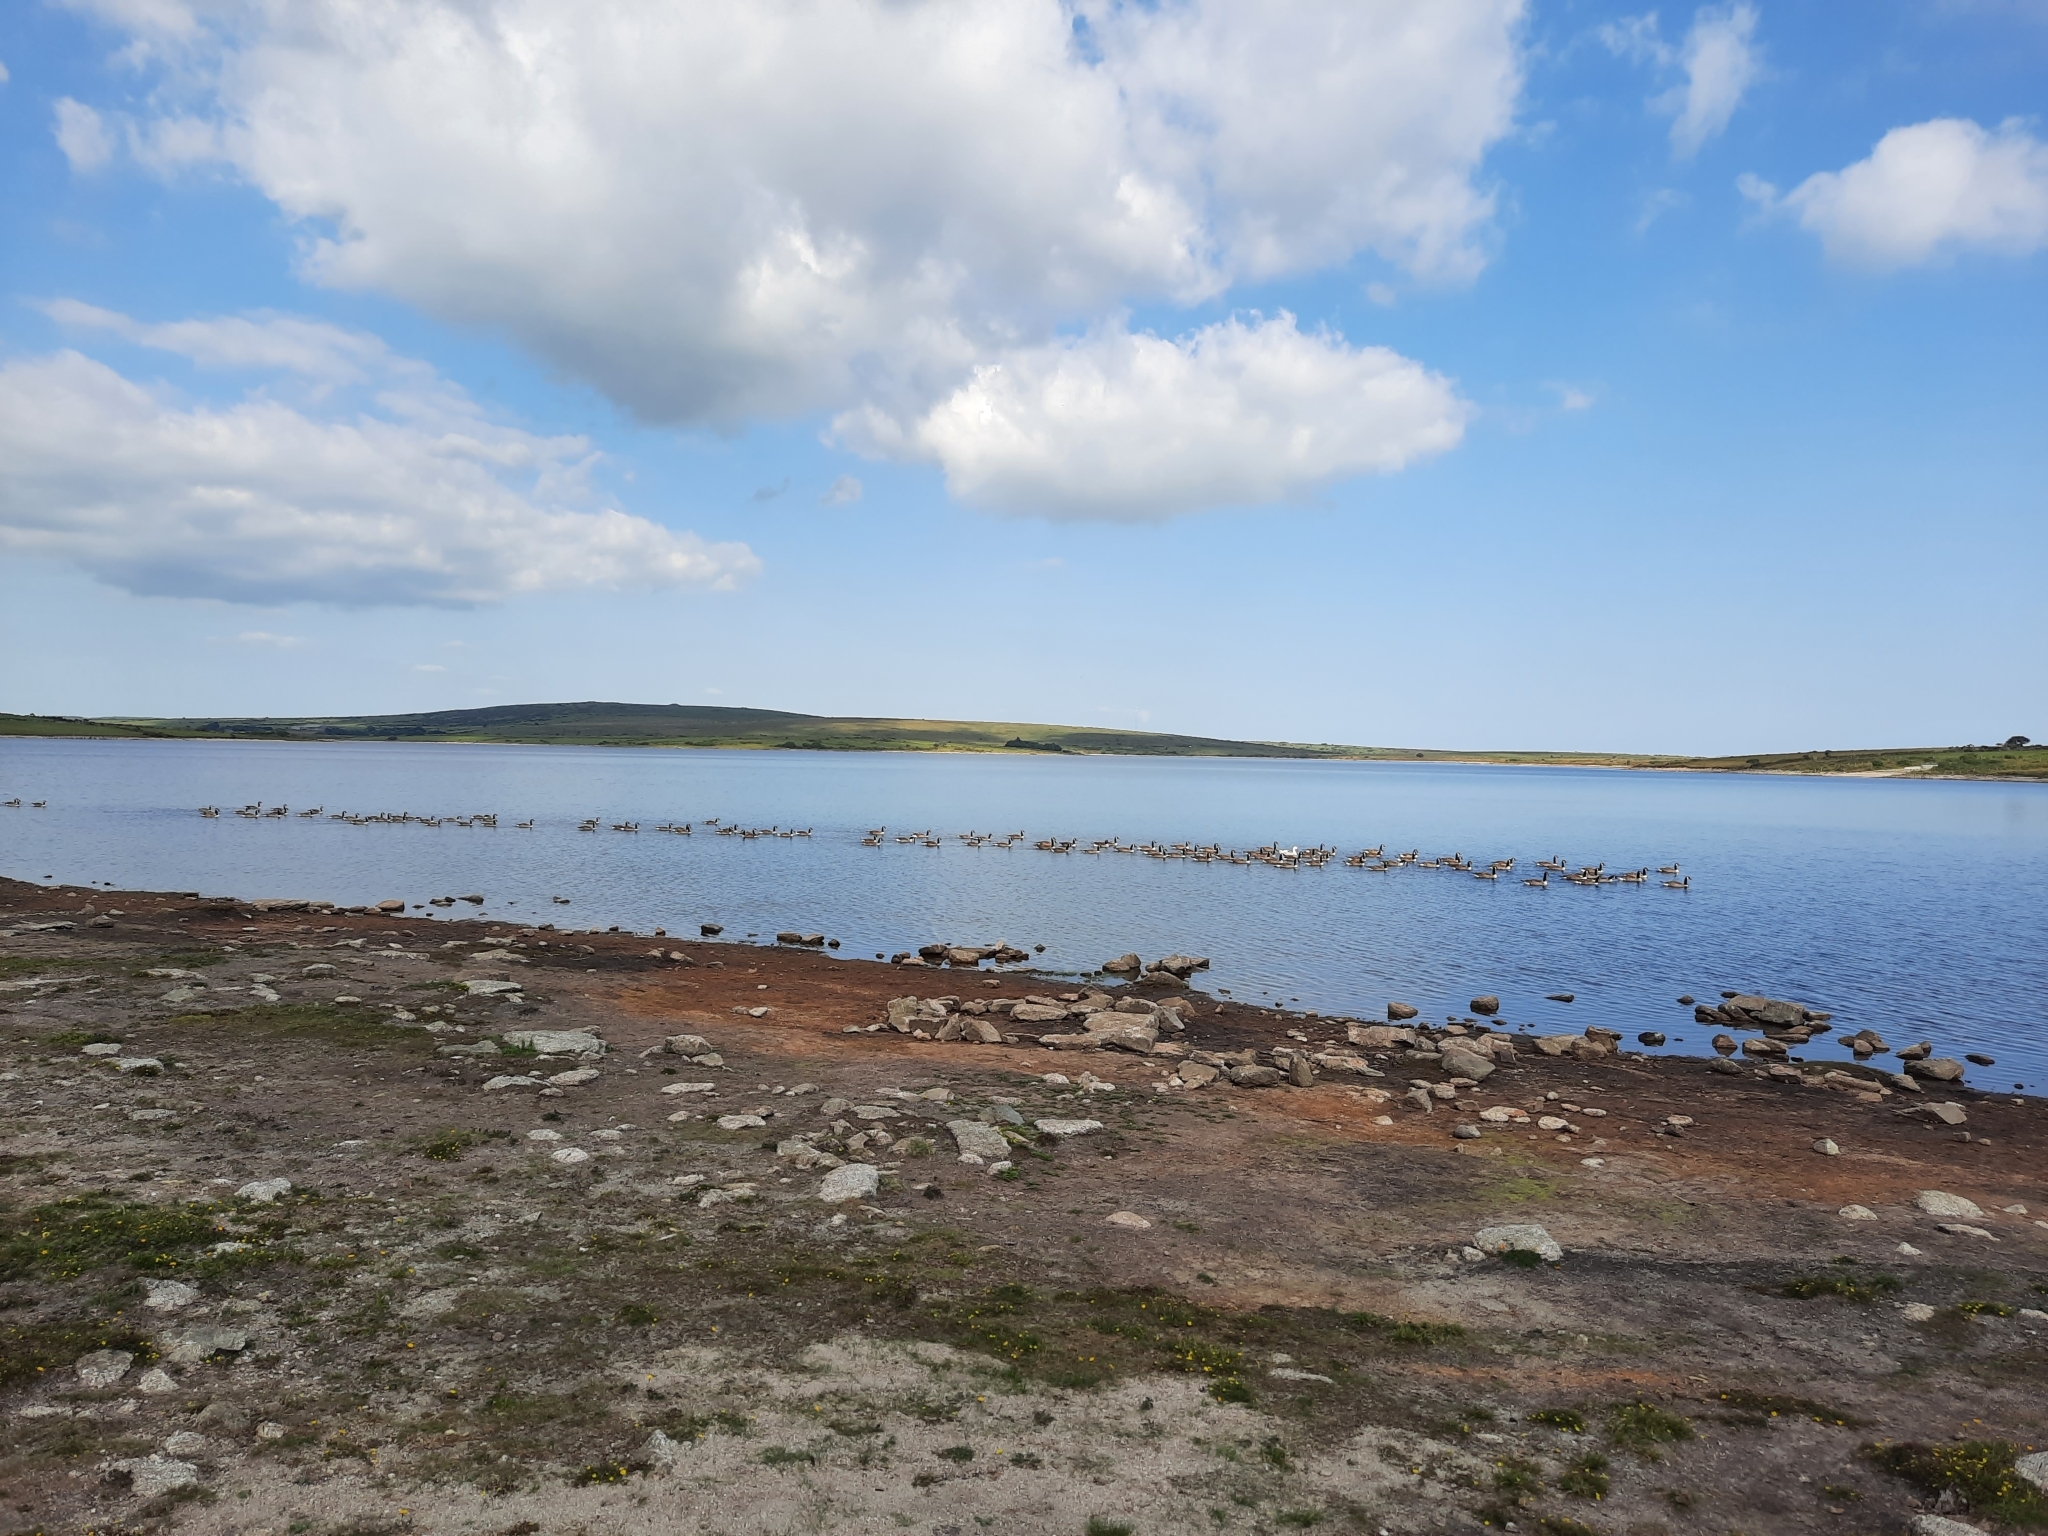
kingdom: Animalia
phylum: Chordata
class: Aves
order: Anseriformes
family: Anatidae
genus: Branta
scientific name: Branta canadensis
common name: Canada goose
